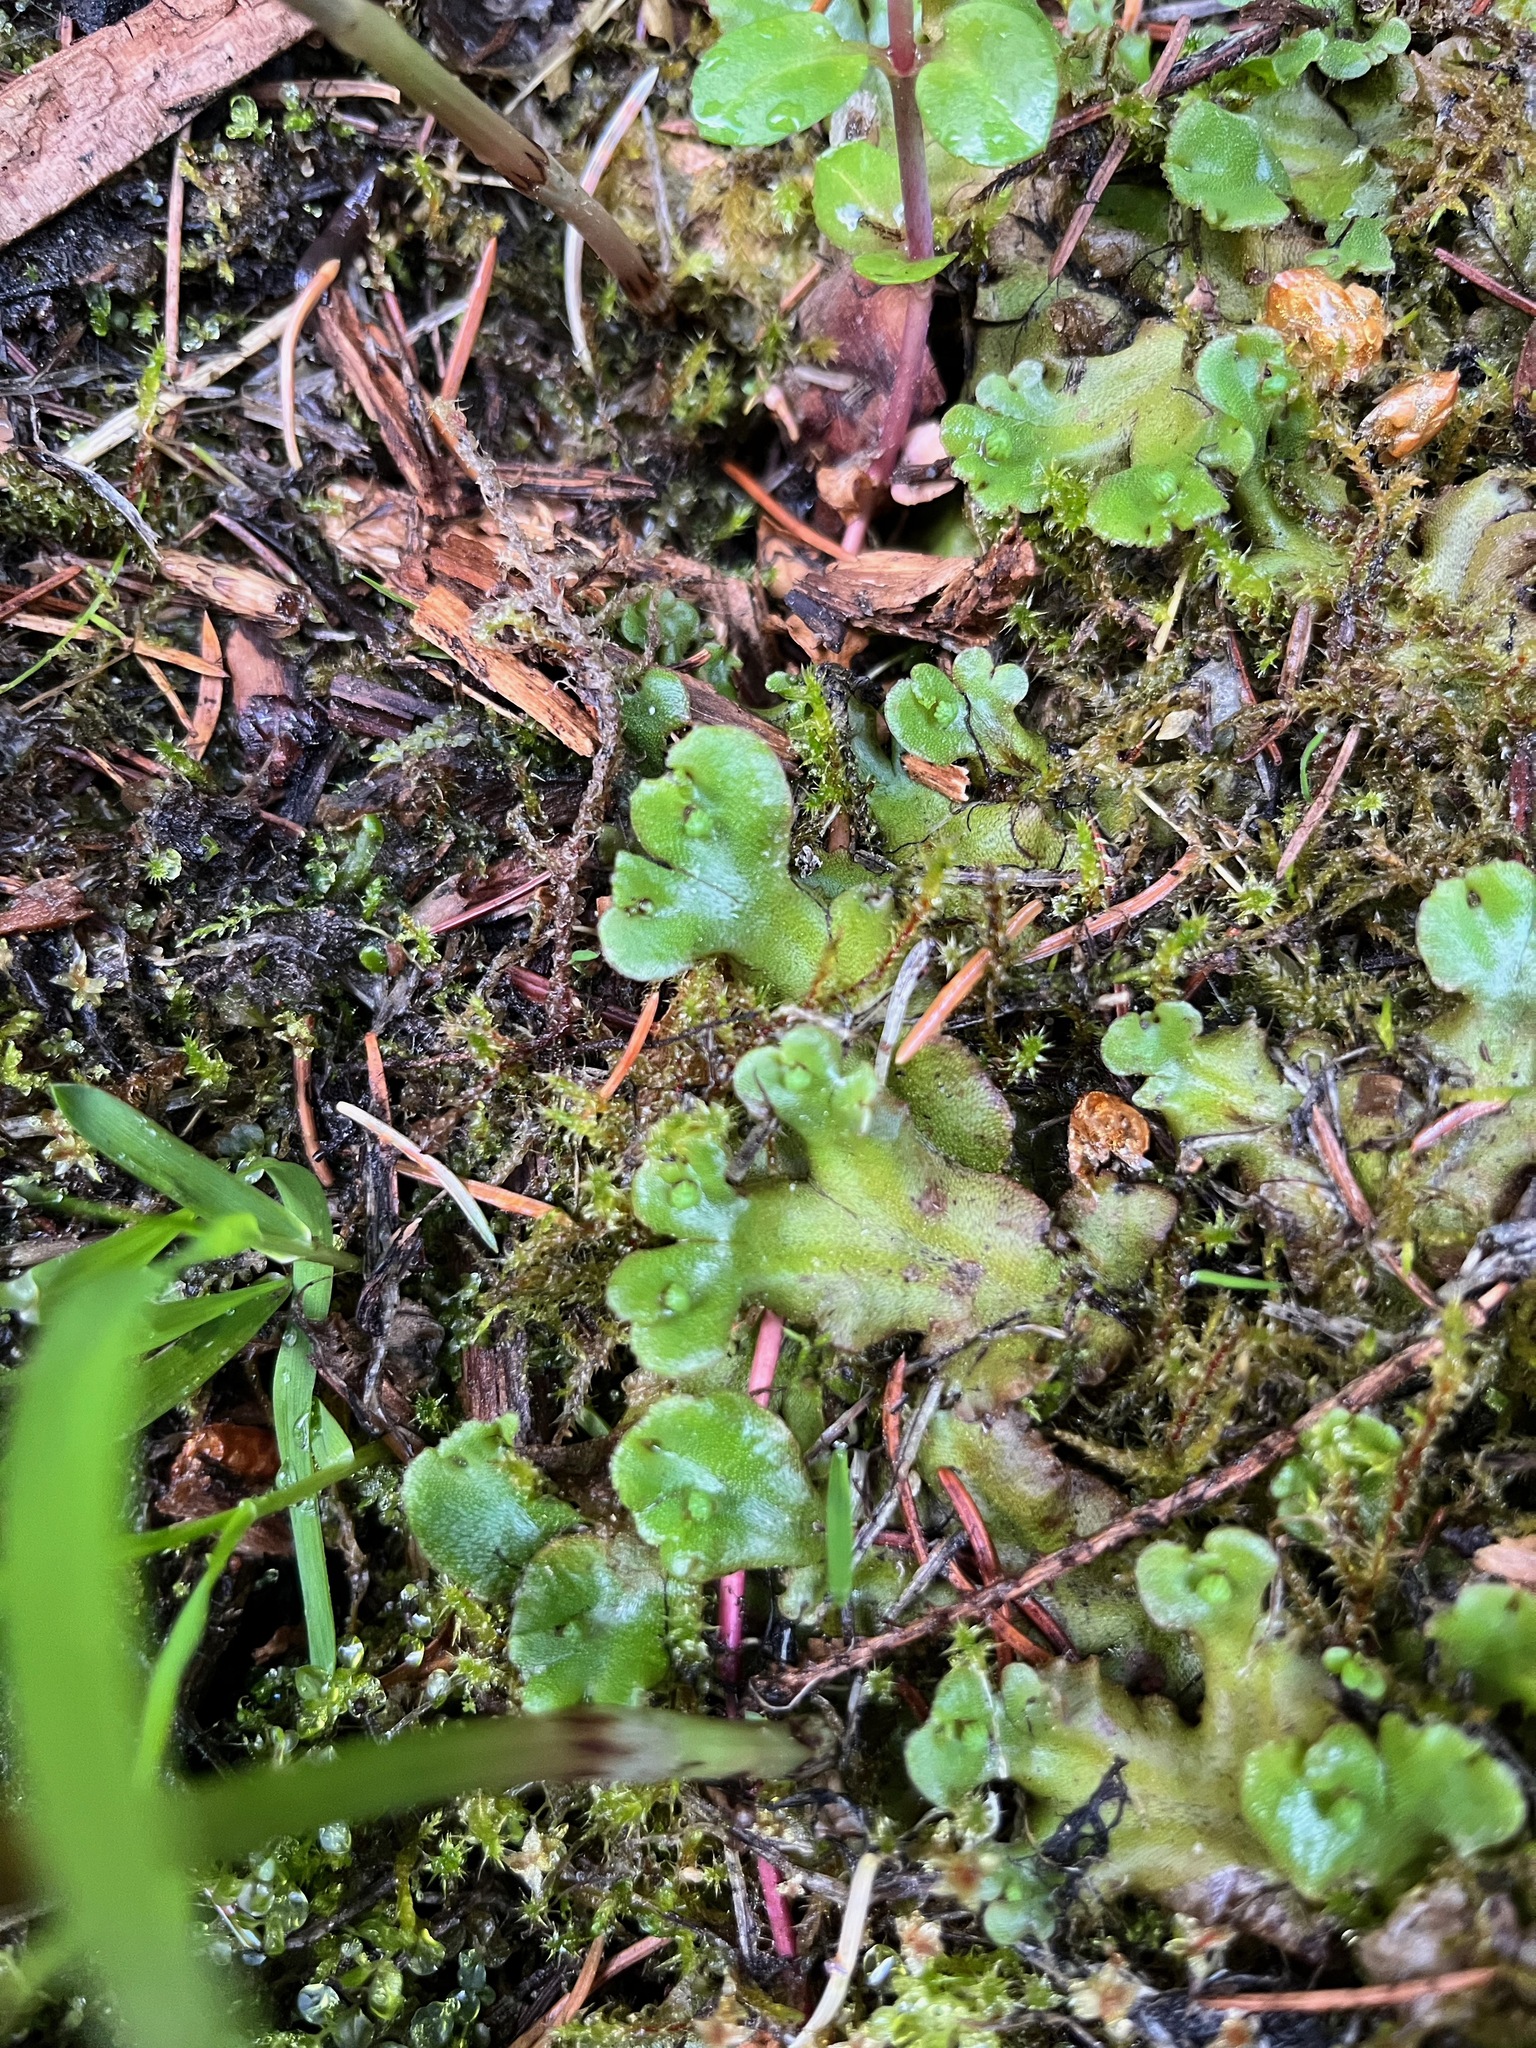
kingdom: Plantae
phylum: Marchantiophyta
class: Marchantiopsida
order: Marchantiales
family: Marchantiaceae
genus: Marchantia
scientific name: Marchantia polymorpha
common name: Common liverwort
